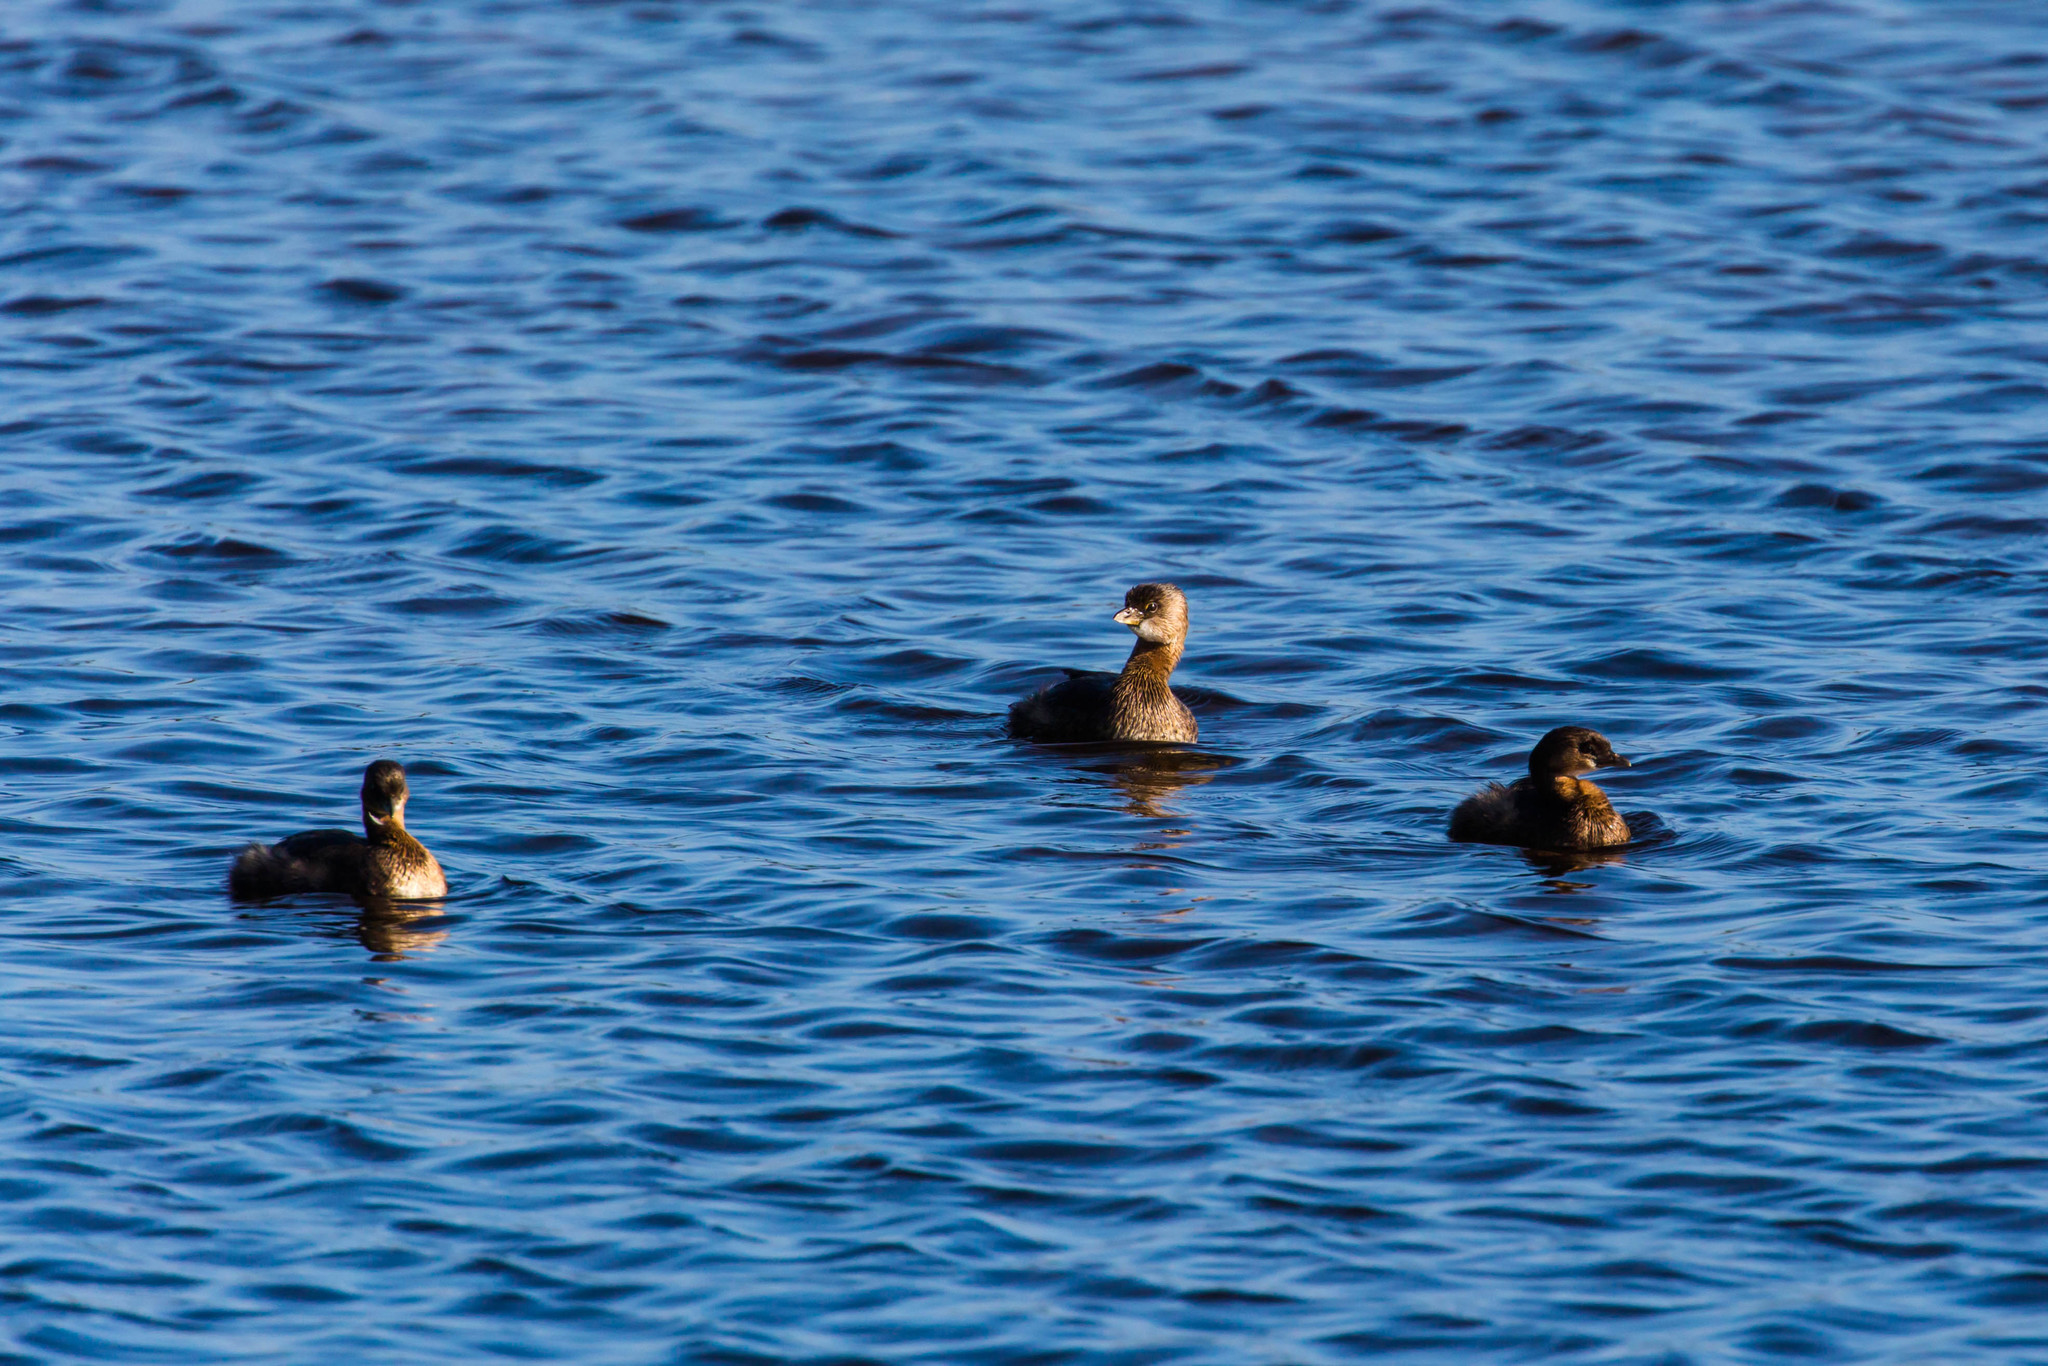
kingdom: Animalia
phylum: Chordata
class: Aves
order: Podicipediformes
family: Podicipedidae
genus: Podilymbus
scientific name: Podilymbus podiceps
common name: Pied-billed grebe
